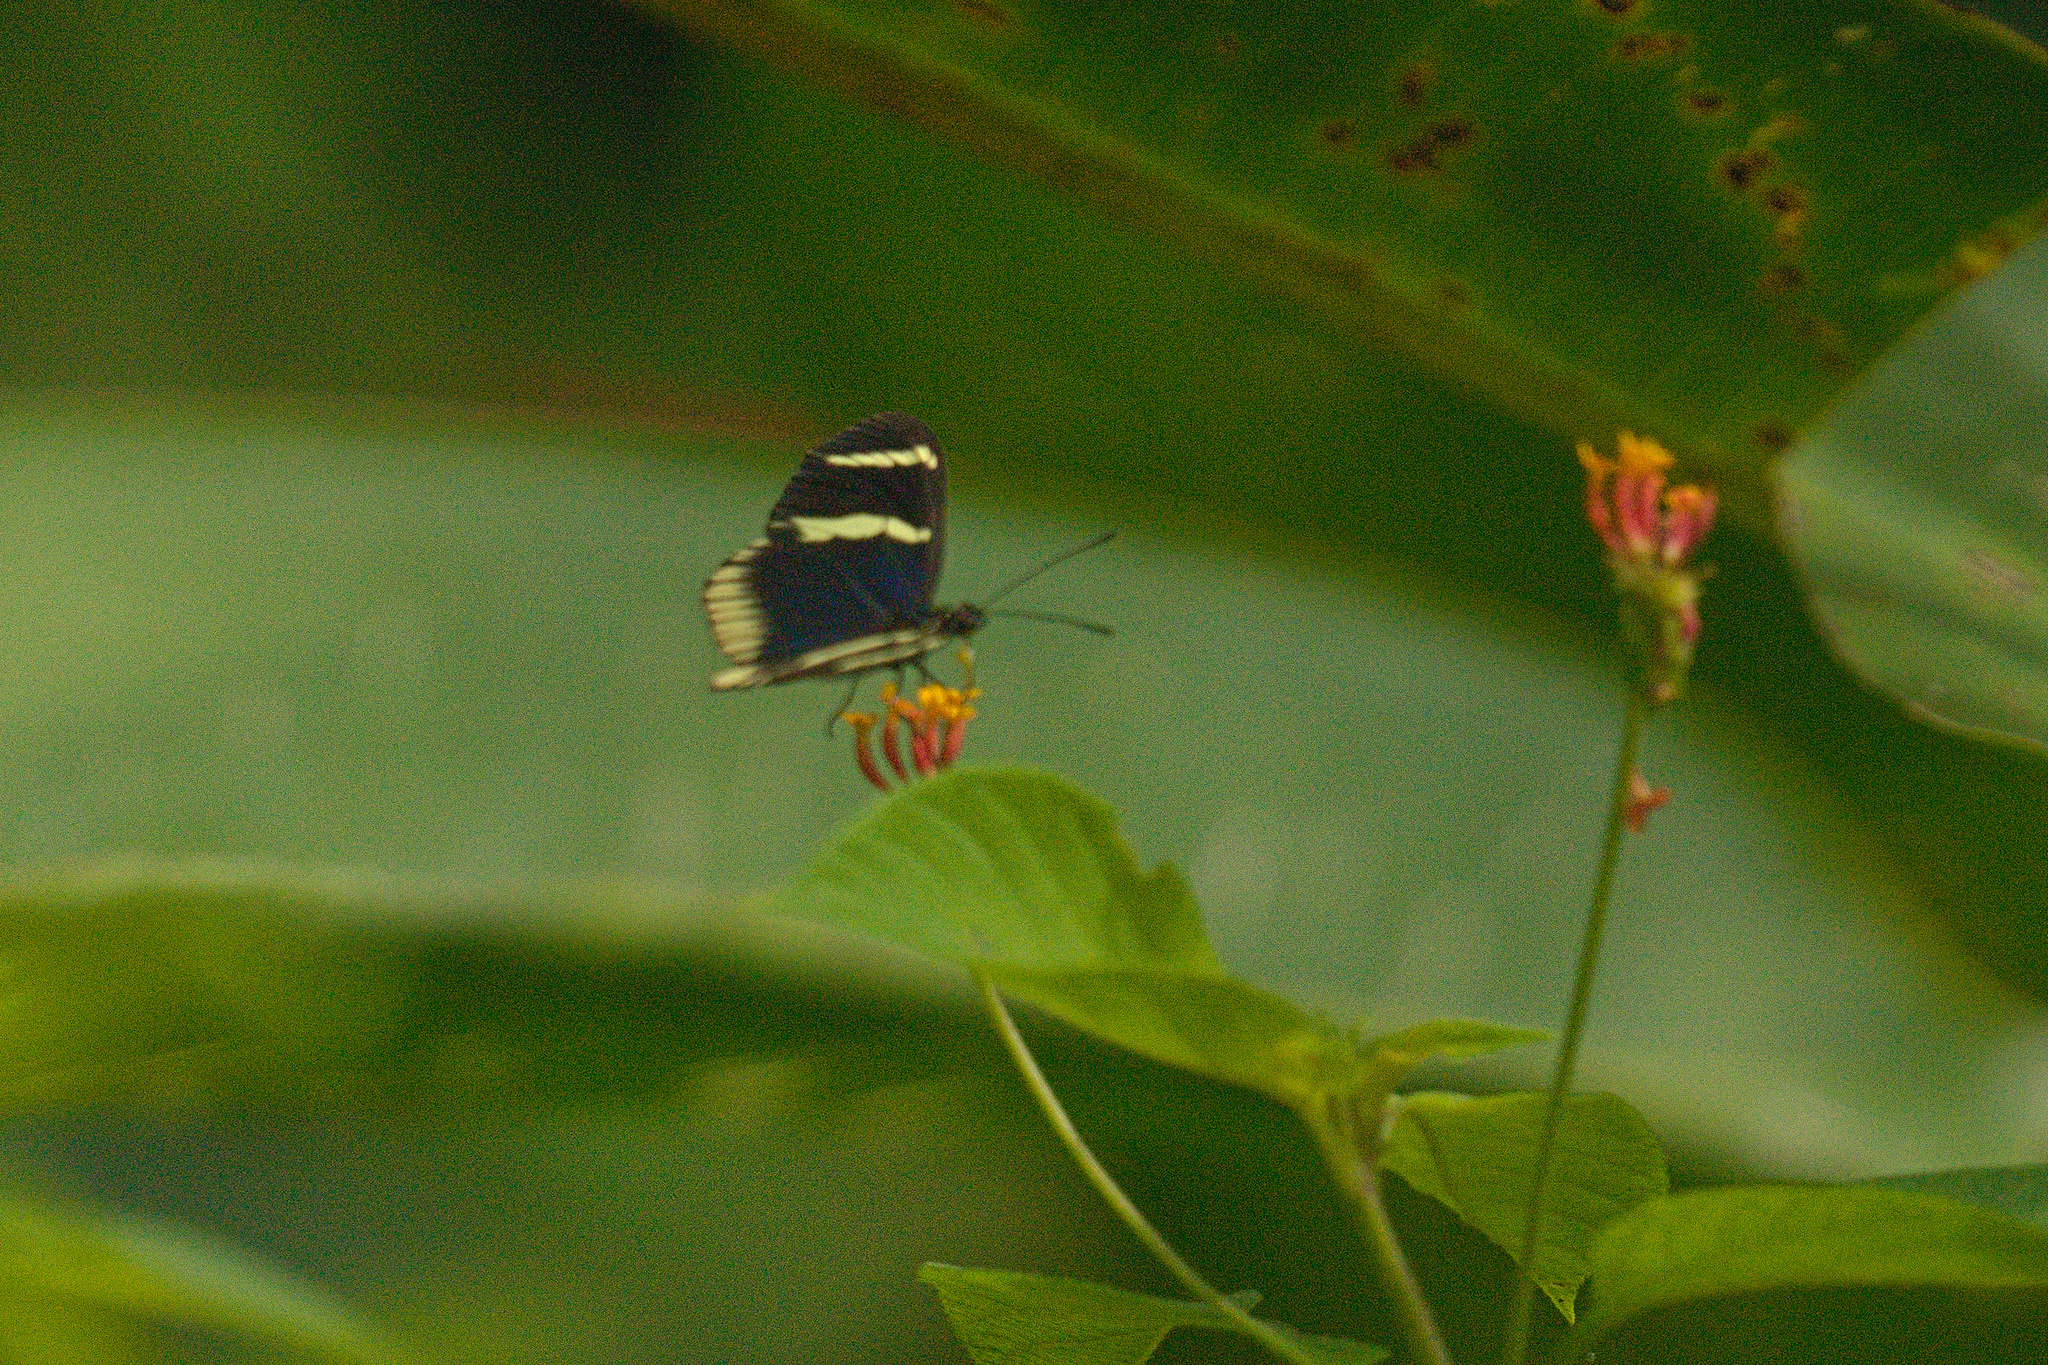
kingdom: Animalia
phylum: Arthropoda
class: Insecta
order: Lepidoptera
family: Nymphalidae
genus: Heliconius
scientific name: Heliconius sara
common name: Sara longwing
